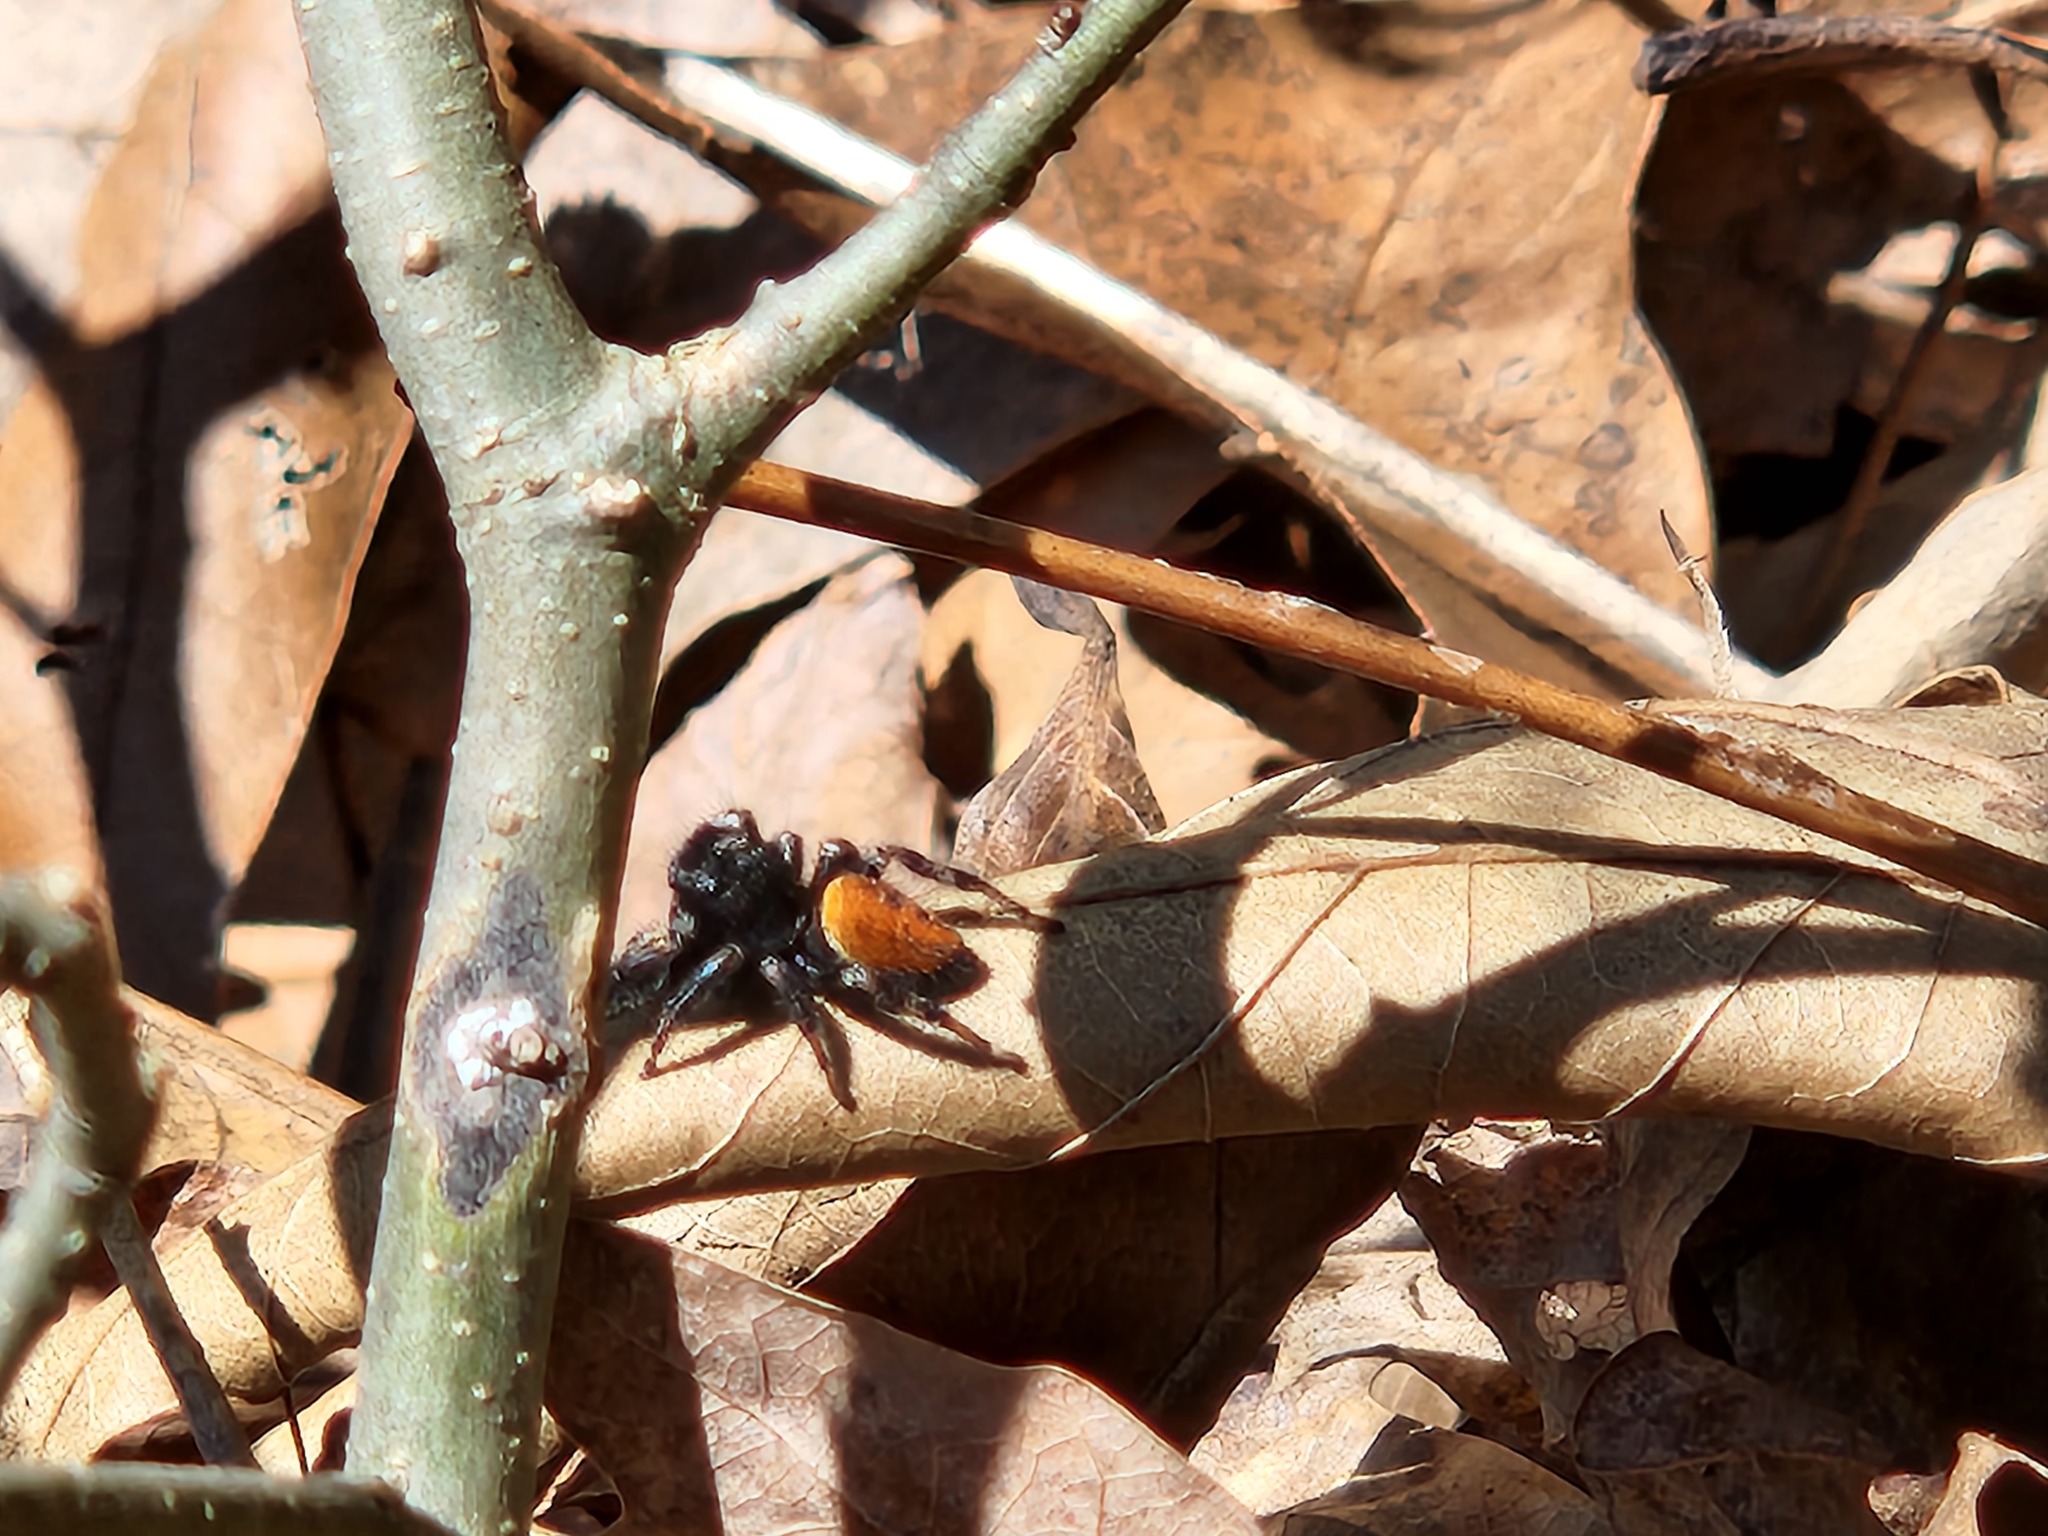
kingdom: Animalia
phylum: Arthropoda
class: Arachnida
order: Araneae
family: Salticidae
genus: Phidippus
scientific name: Phidippus princeps
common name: Grayish jumping spider
